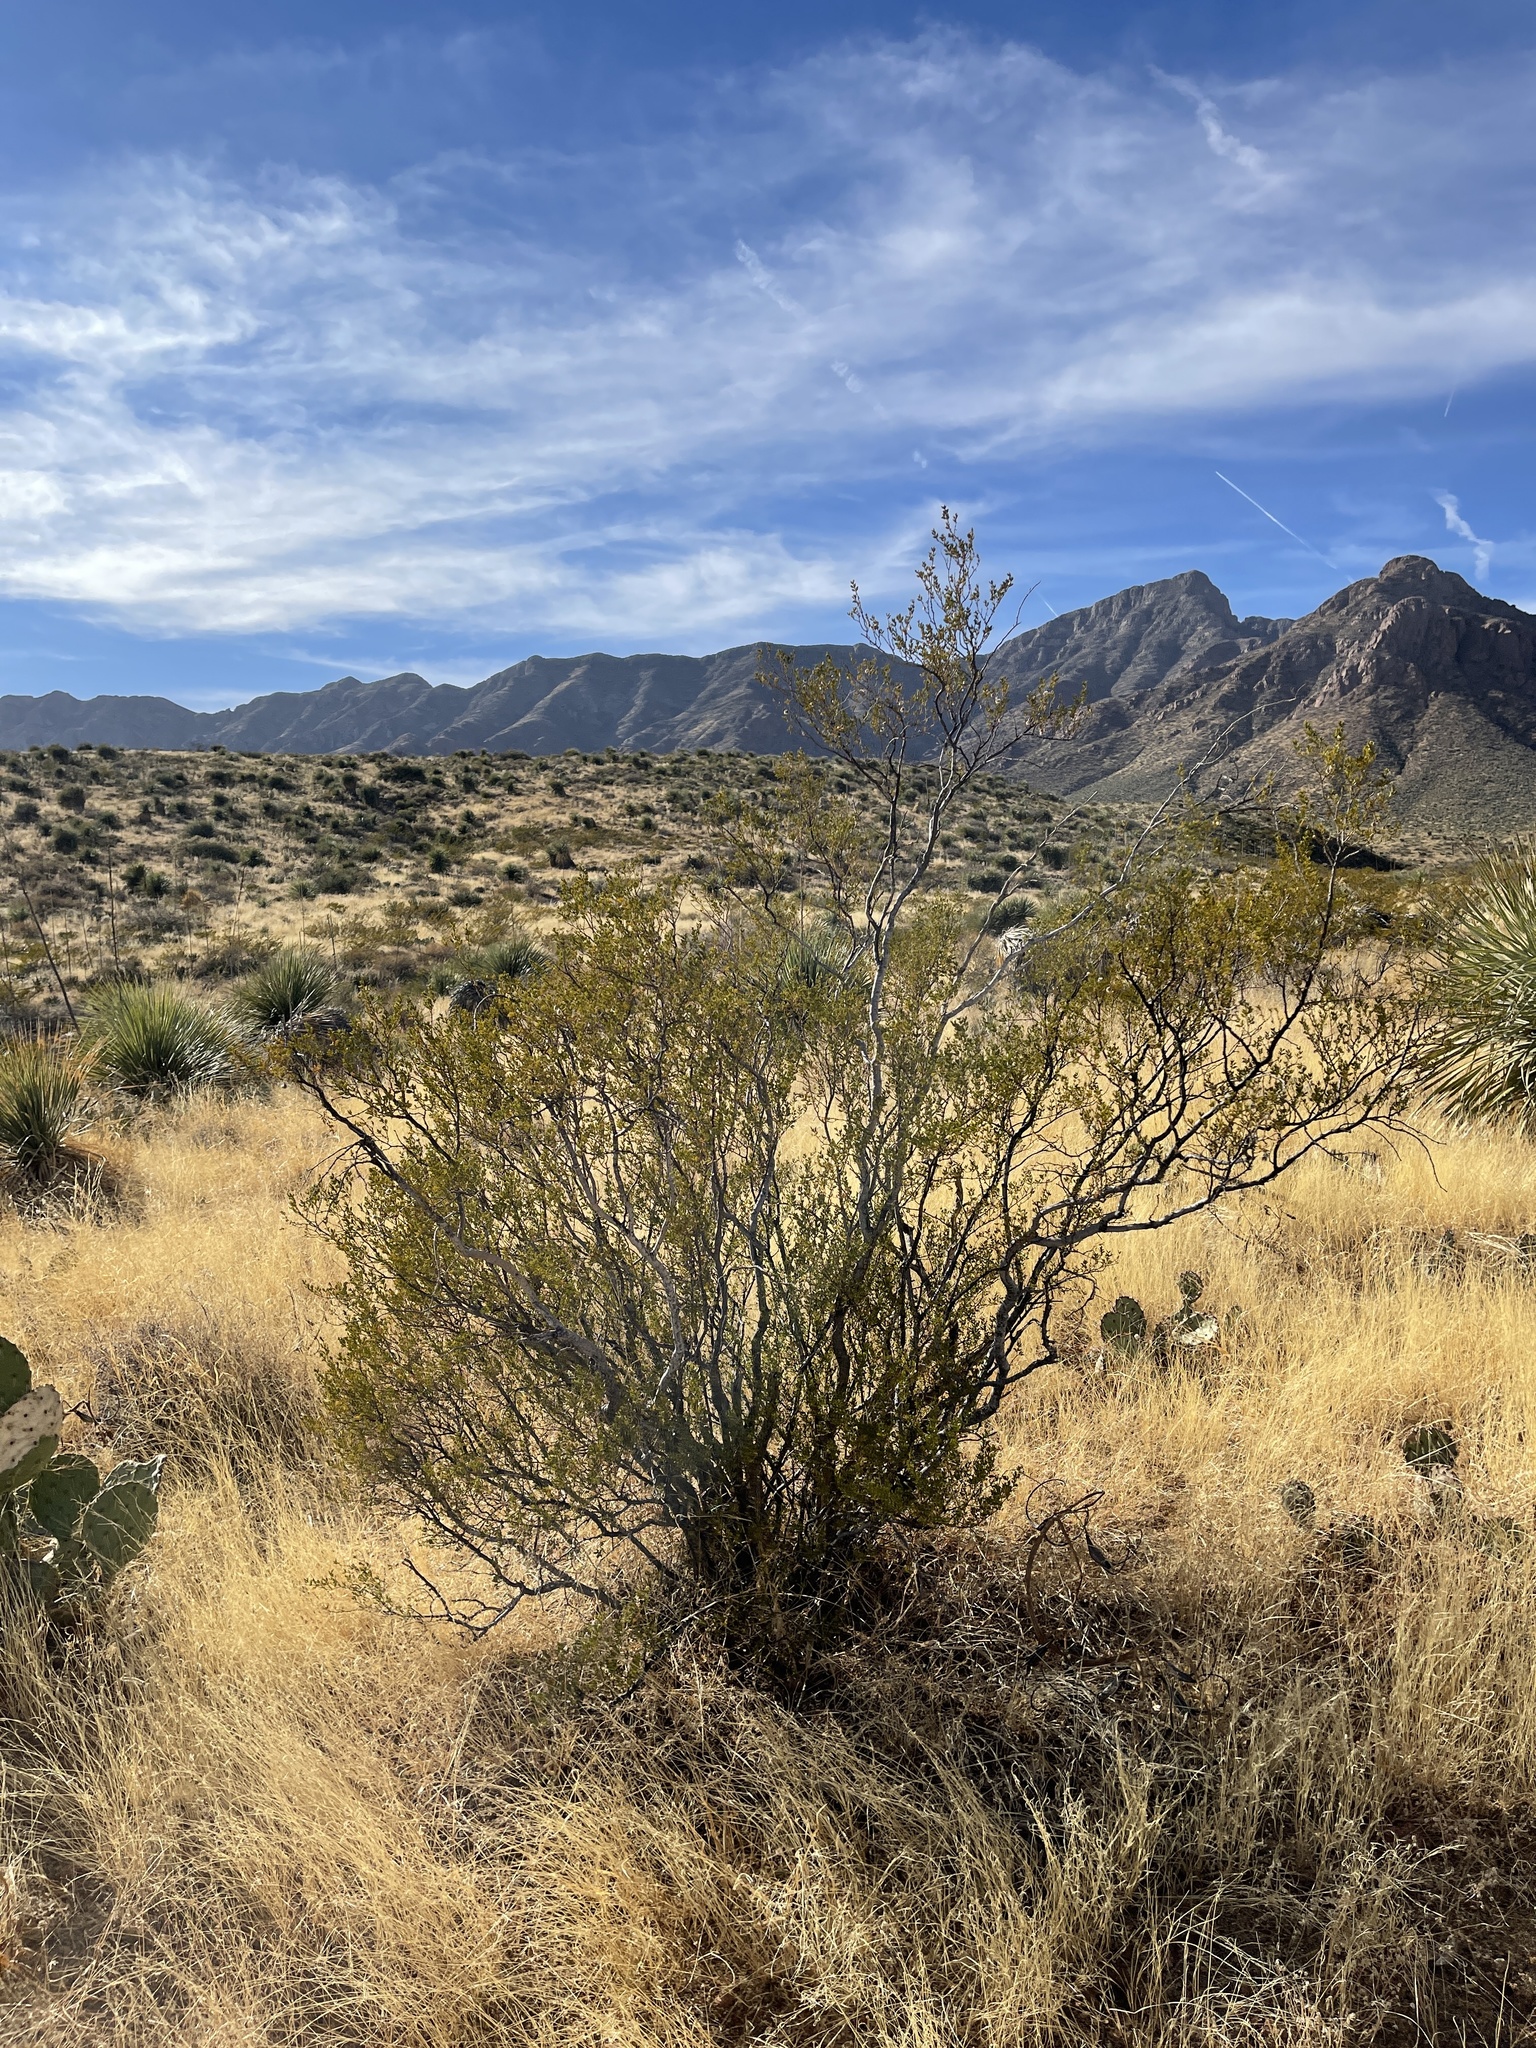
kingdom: Plantae
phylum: Tracheophyta
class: Magnoliopsida
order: Zygophyllales
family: Zygophyllaceae
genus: Larrea
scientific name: Larrea tridentata
